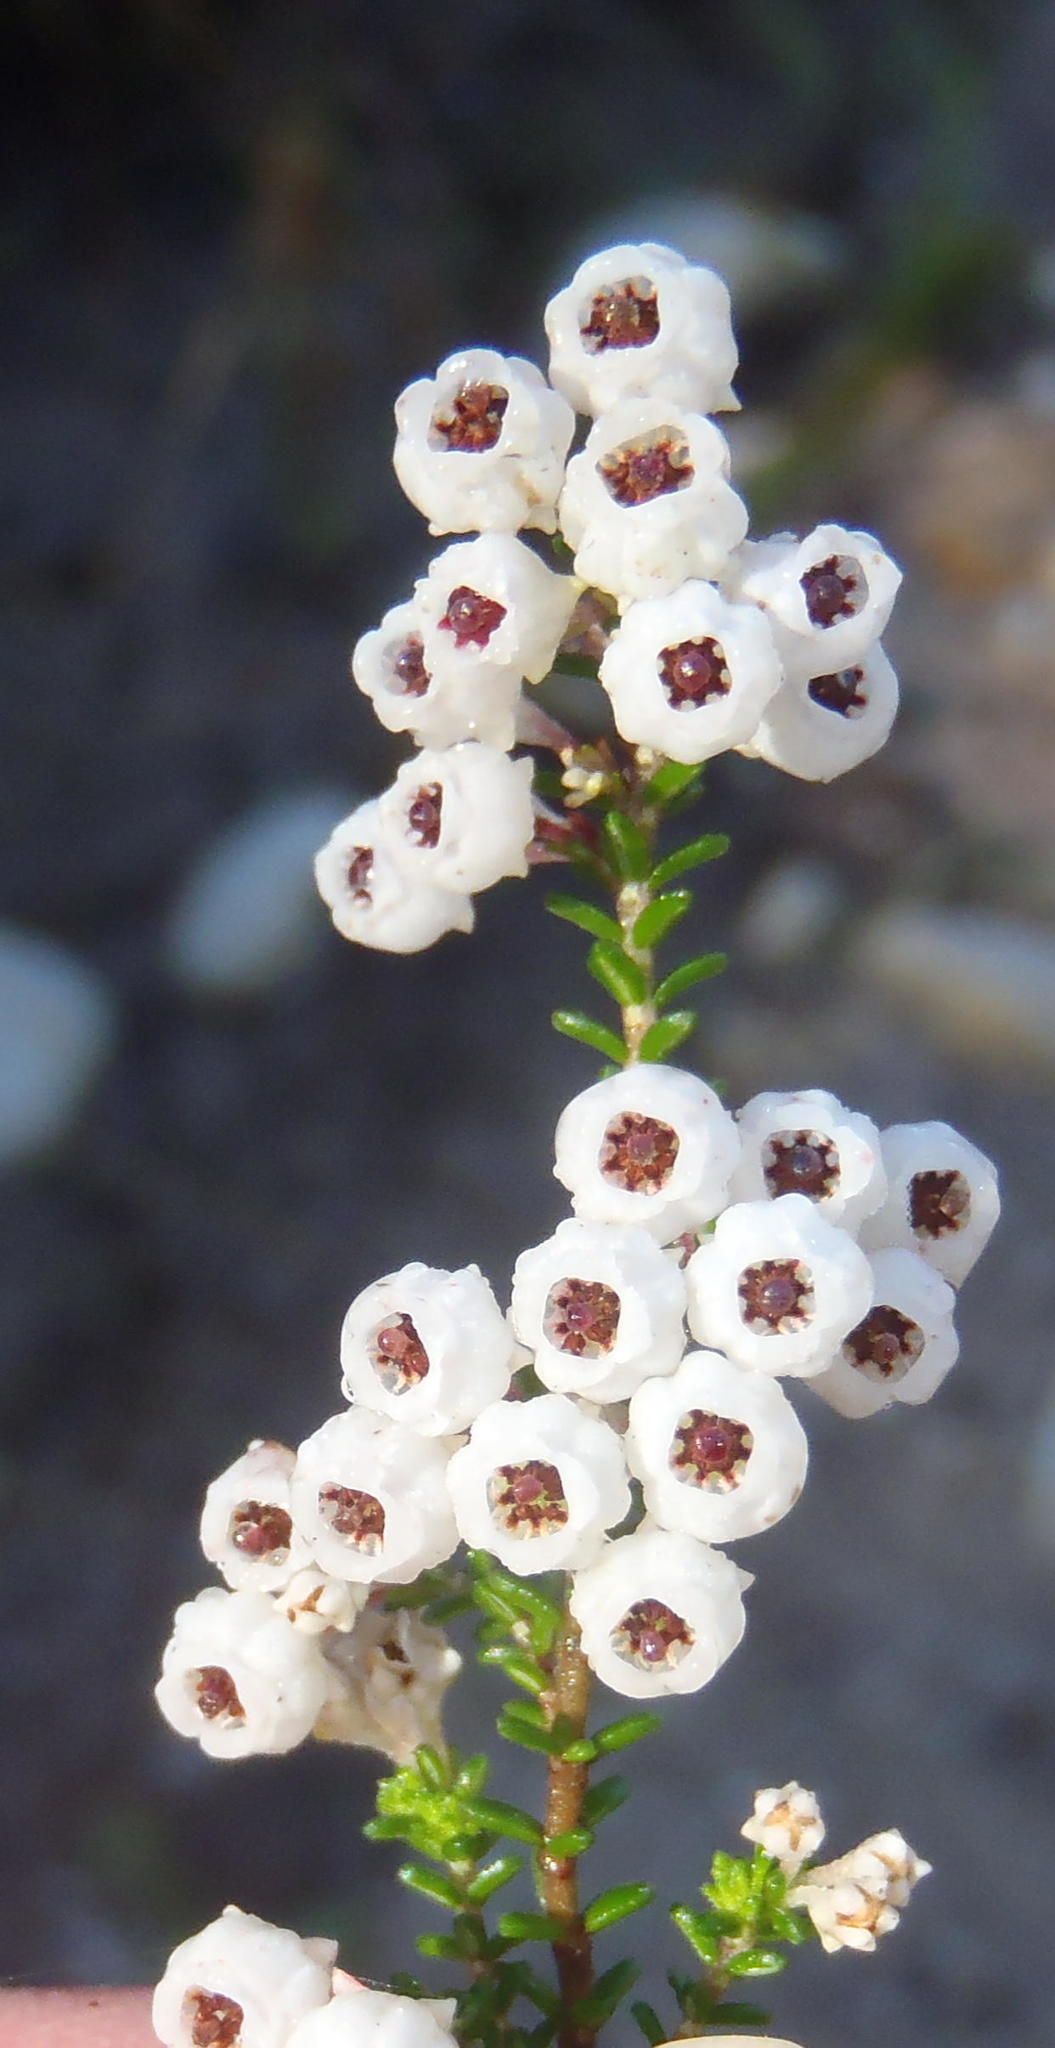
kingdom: Plantae
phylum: Tracheophyta
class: Magnoliopsida
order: Ericales
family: Ericaceae
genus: Erica
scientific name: Erica formosa
